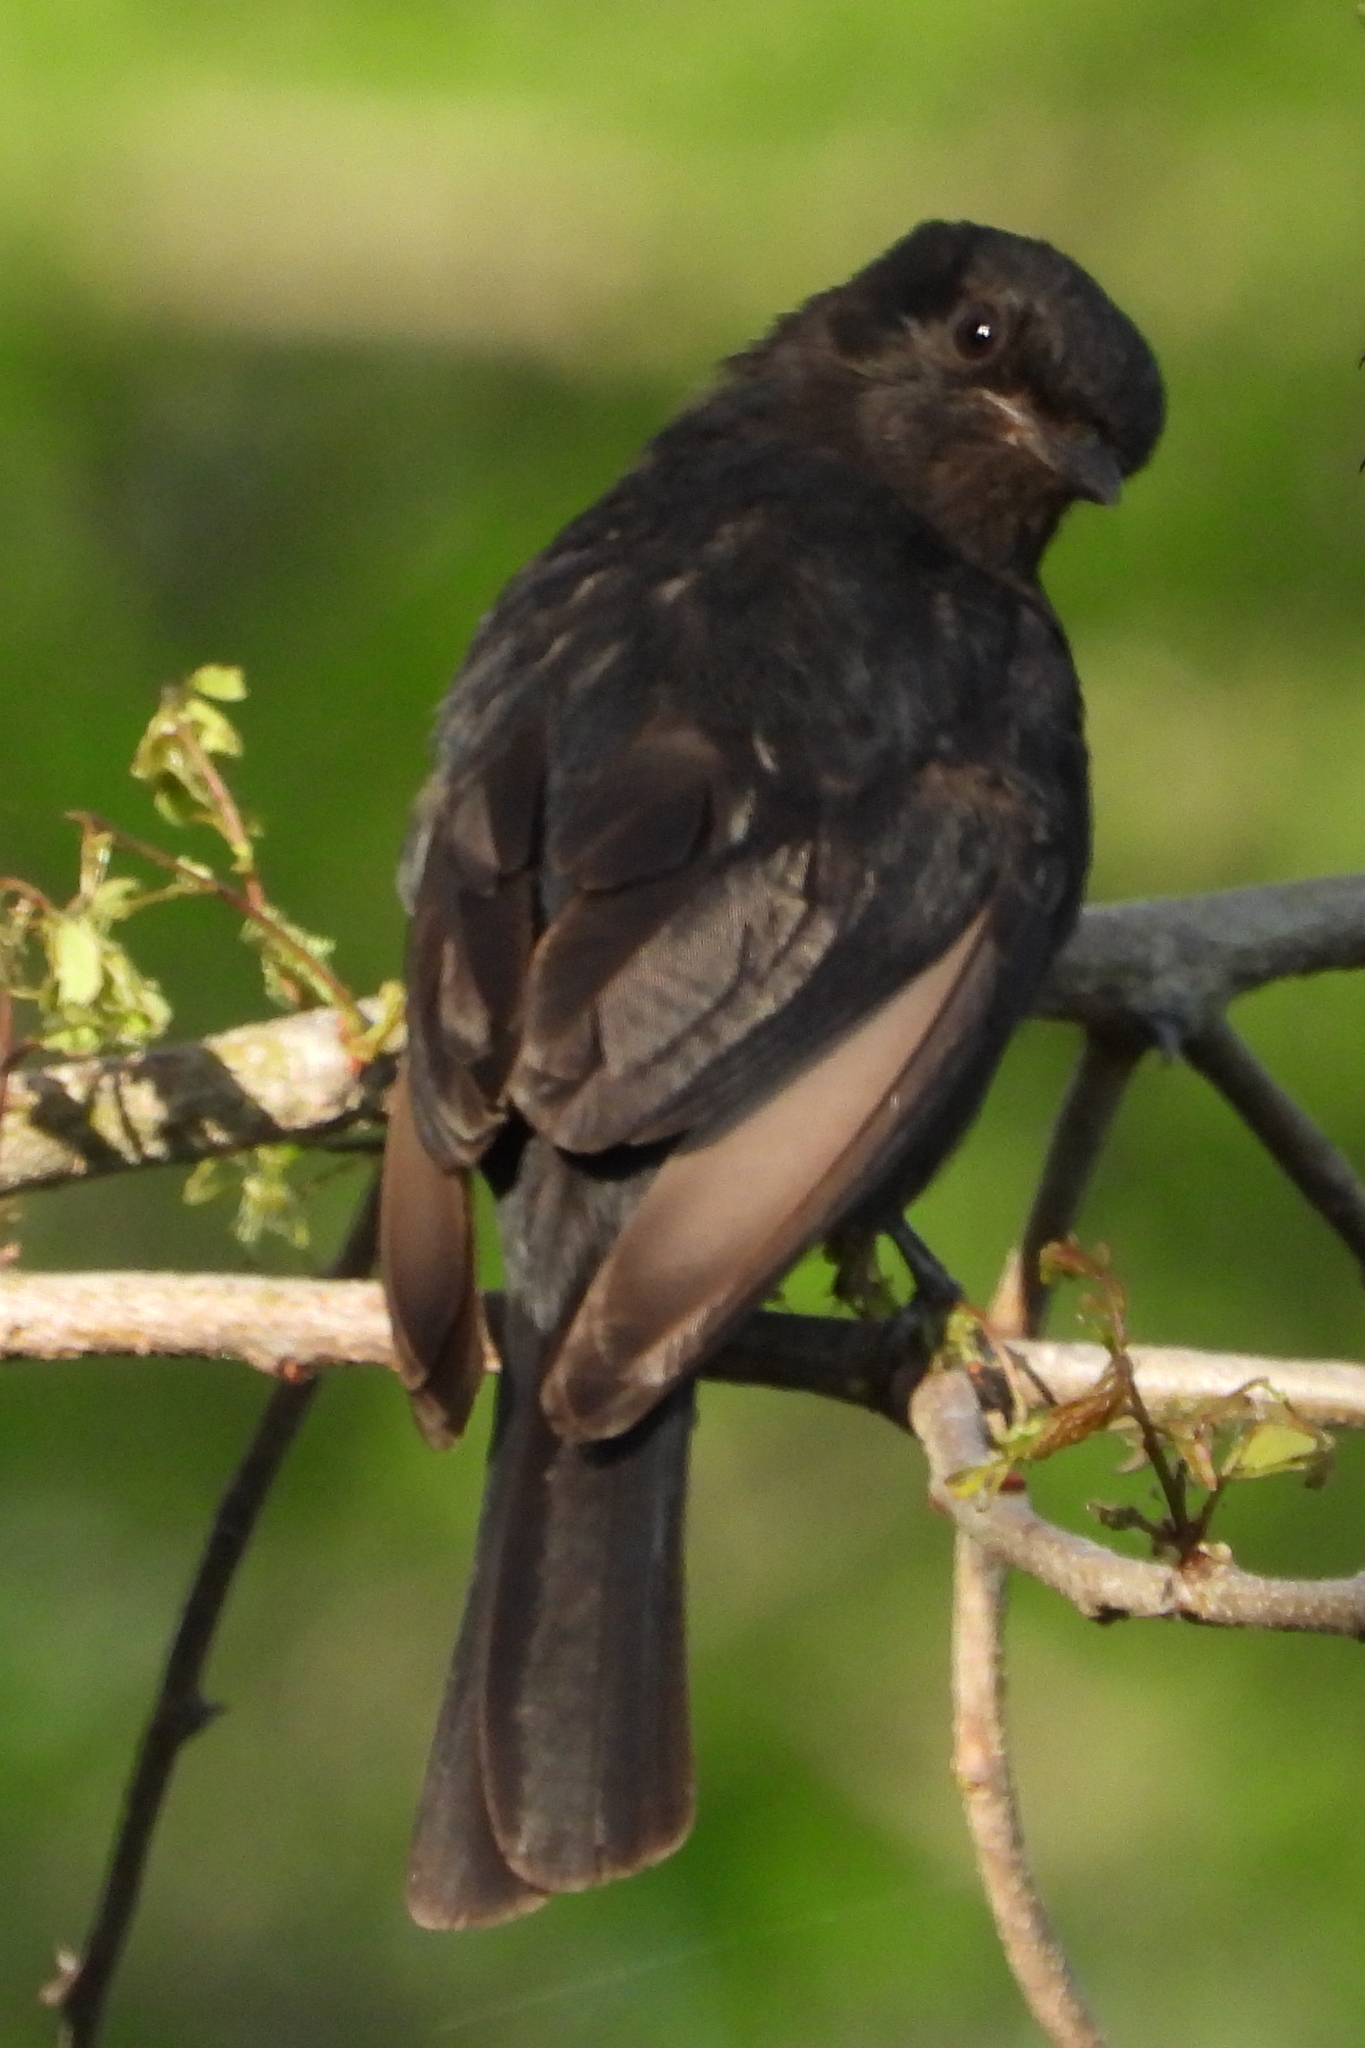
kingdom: Animalia
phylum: Chordata
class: Aves
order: Passeriformes
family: Muscicapidae
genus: Melaenornis
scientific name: Melaenornis pammelaina
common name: Southern black flycatcher
